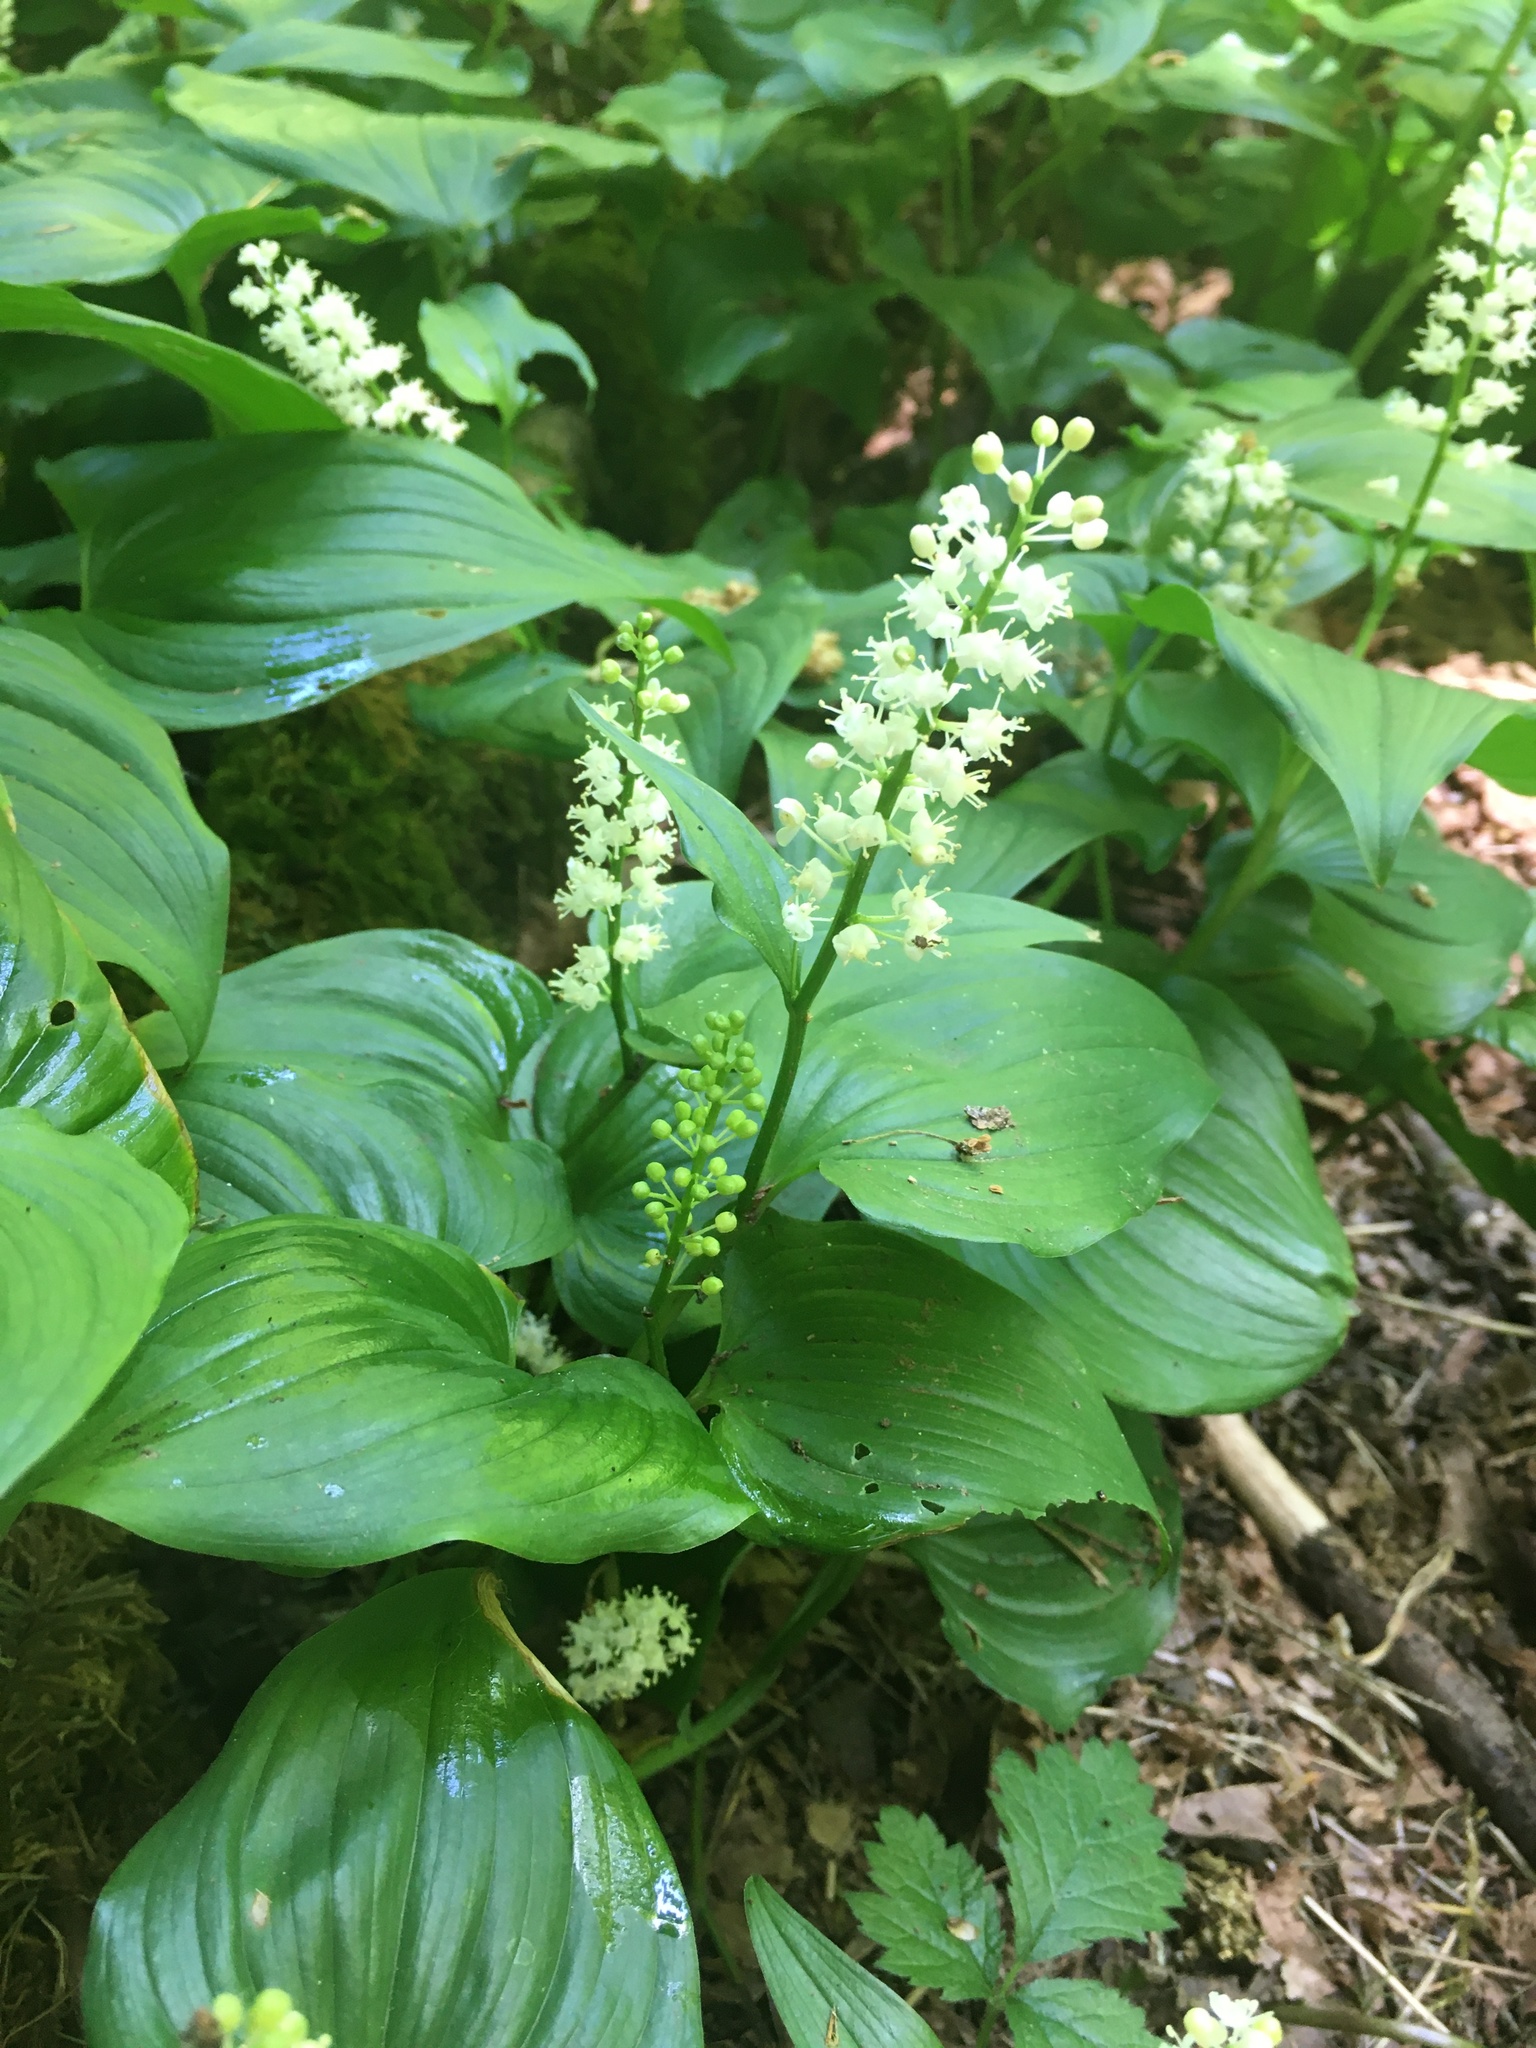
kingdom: Plantae
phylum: Tracheophyta
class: Liliopsida
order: Asparagales
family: Asparagaceae
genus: Maianthemum
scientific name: Maianthemum dilatatum
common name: False lily-of-the-valley
